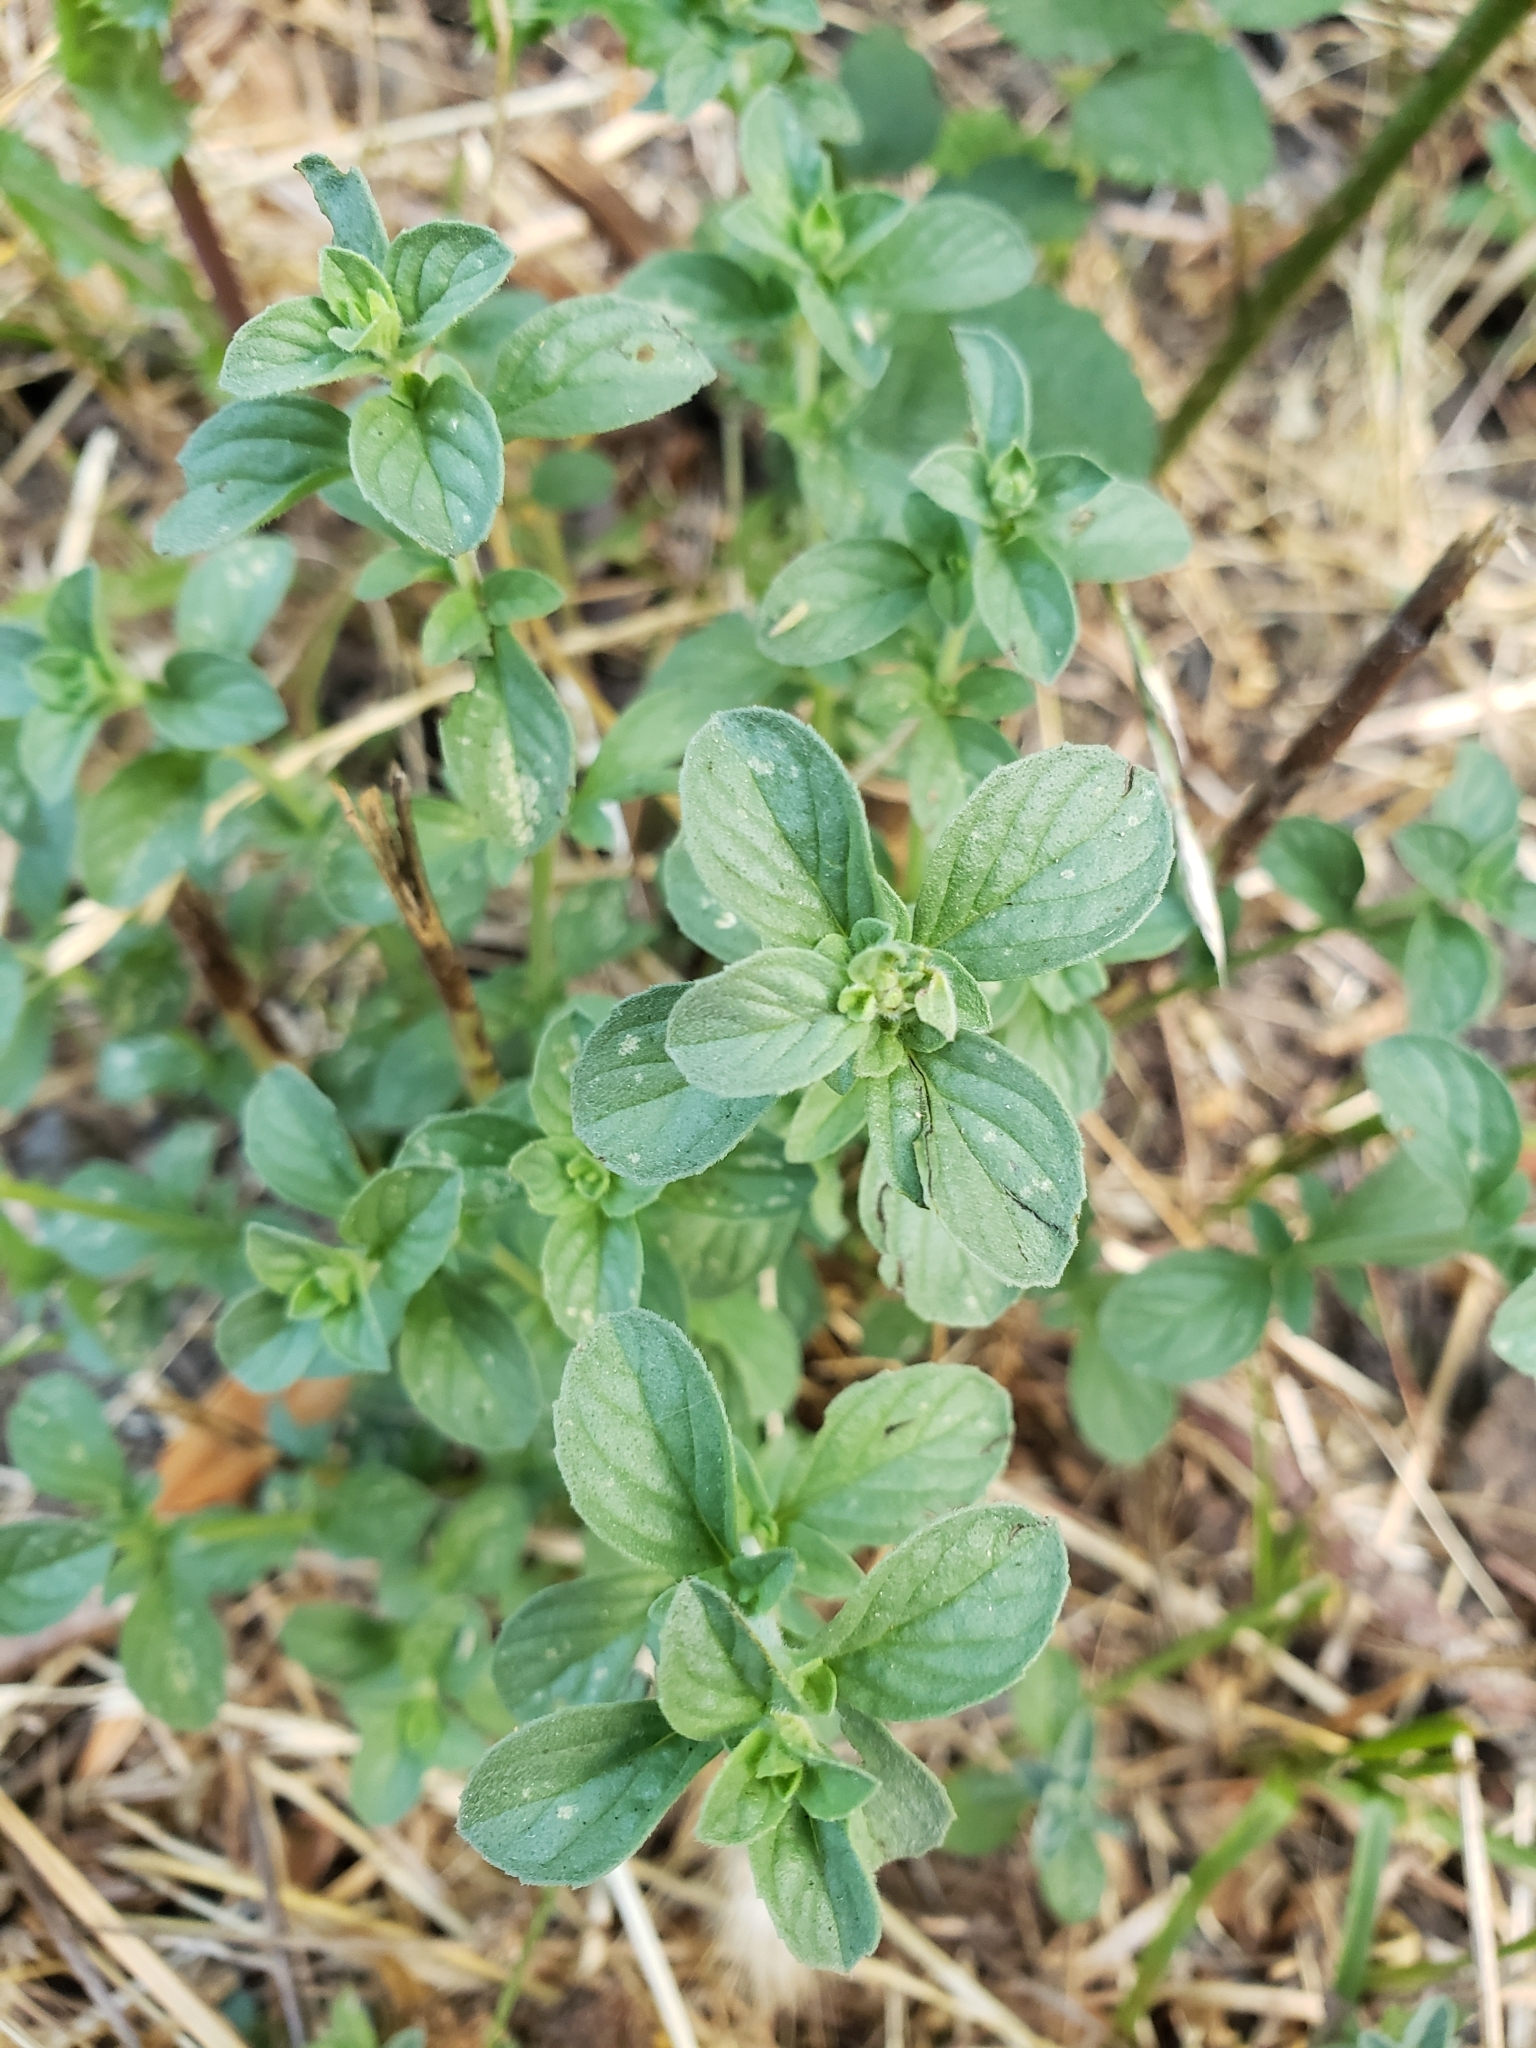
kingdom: Plantae
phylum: Tracheophyta
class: Magnoliopsida
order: Lamiales
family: Lamiaceae
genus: Mentha
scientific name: Mentha pulegium
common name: Pennyroyal
